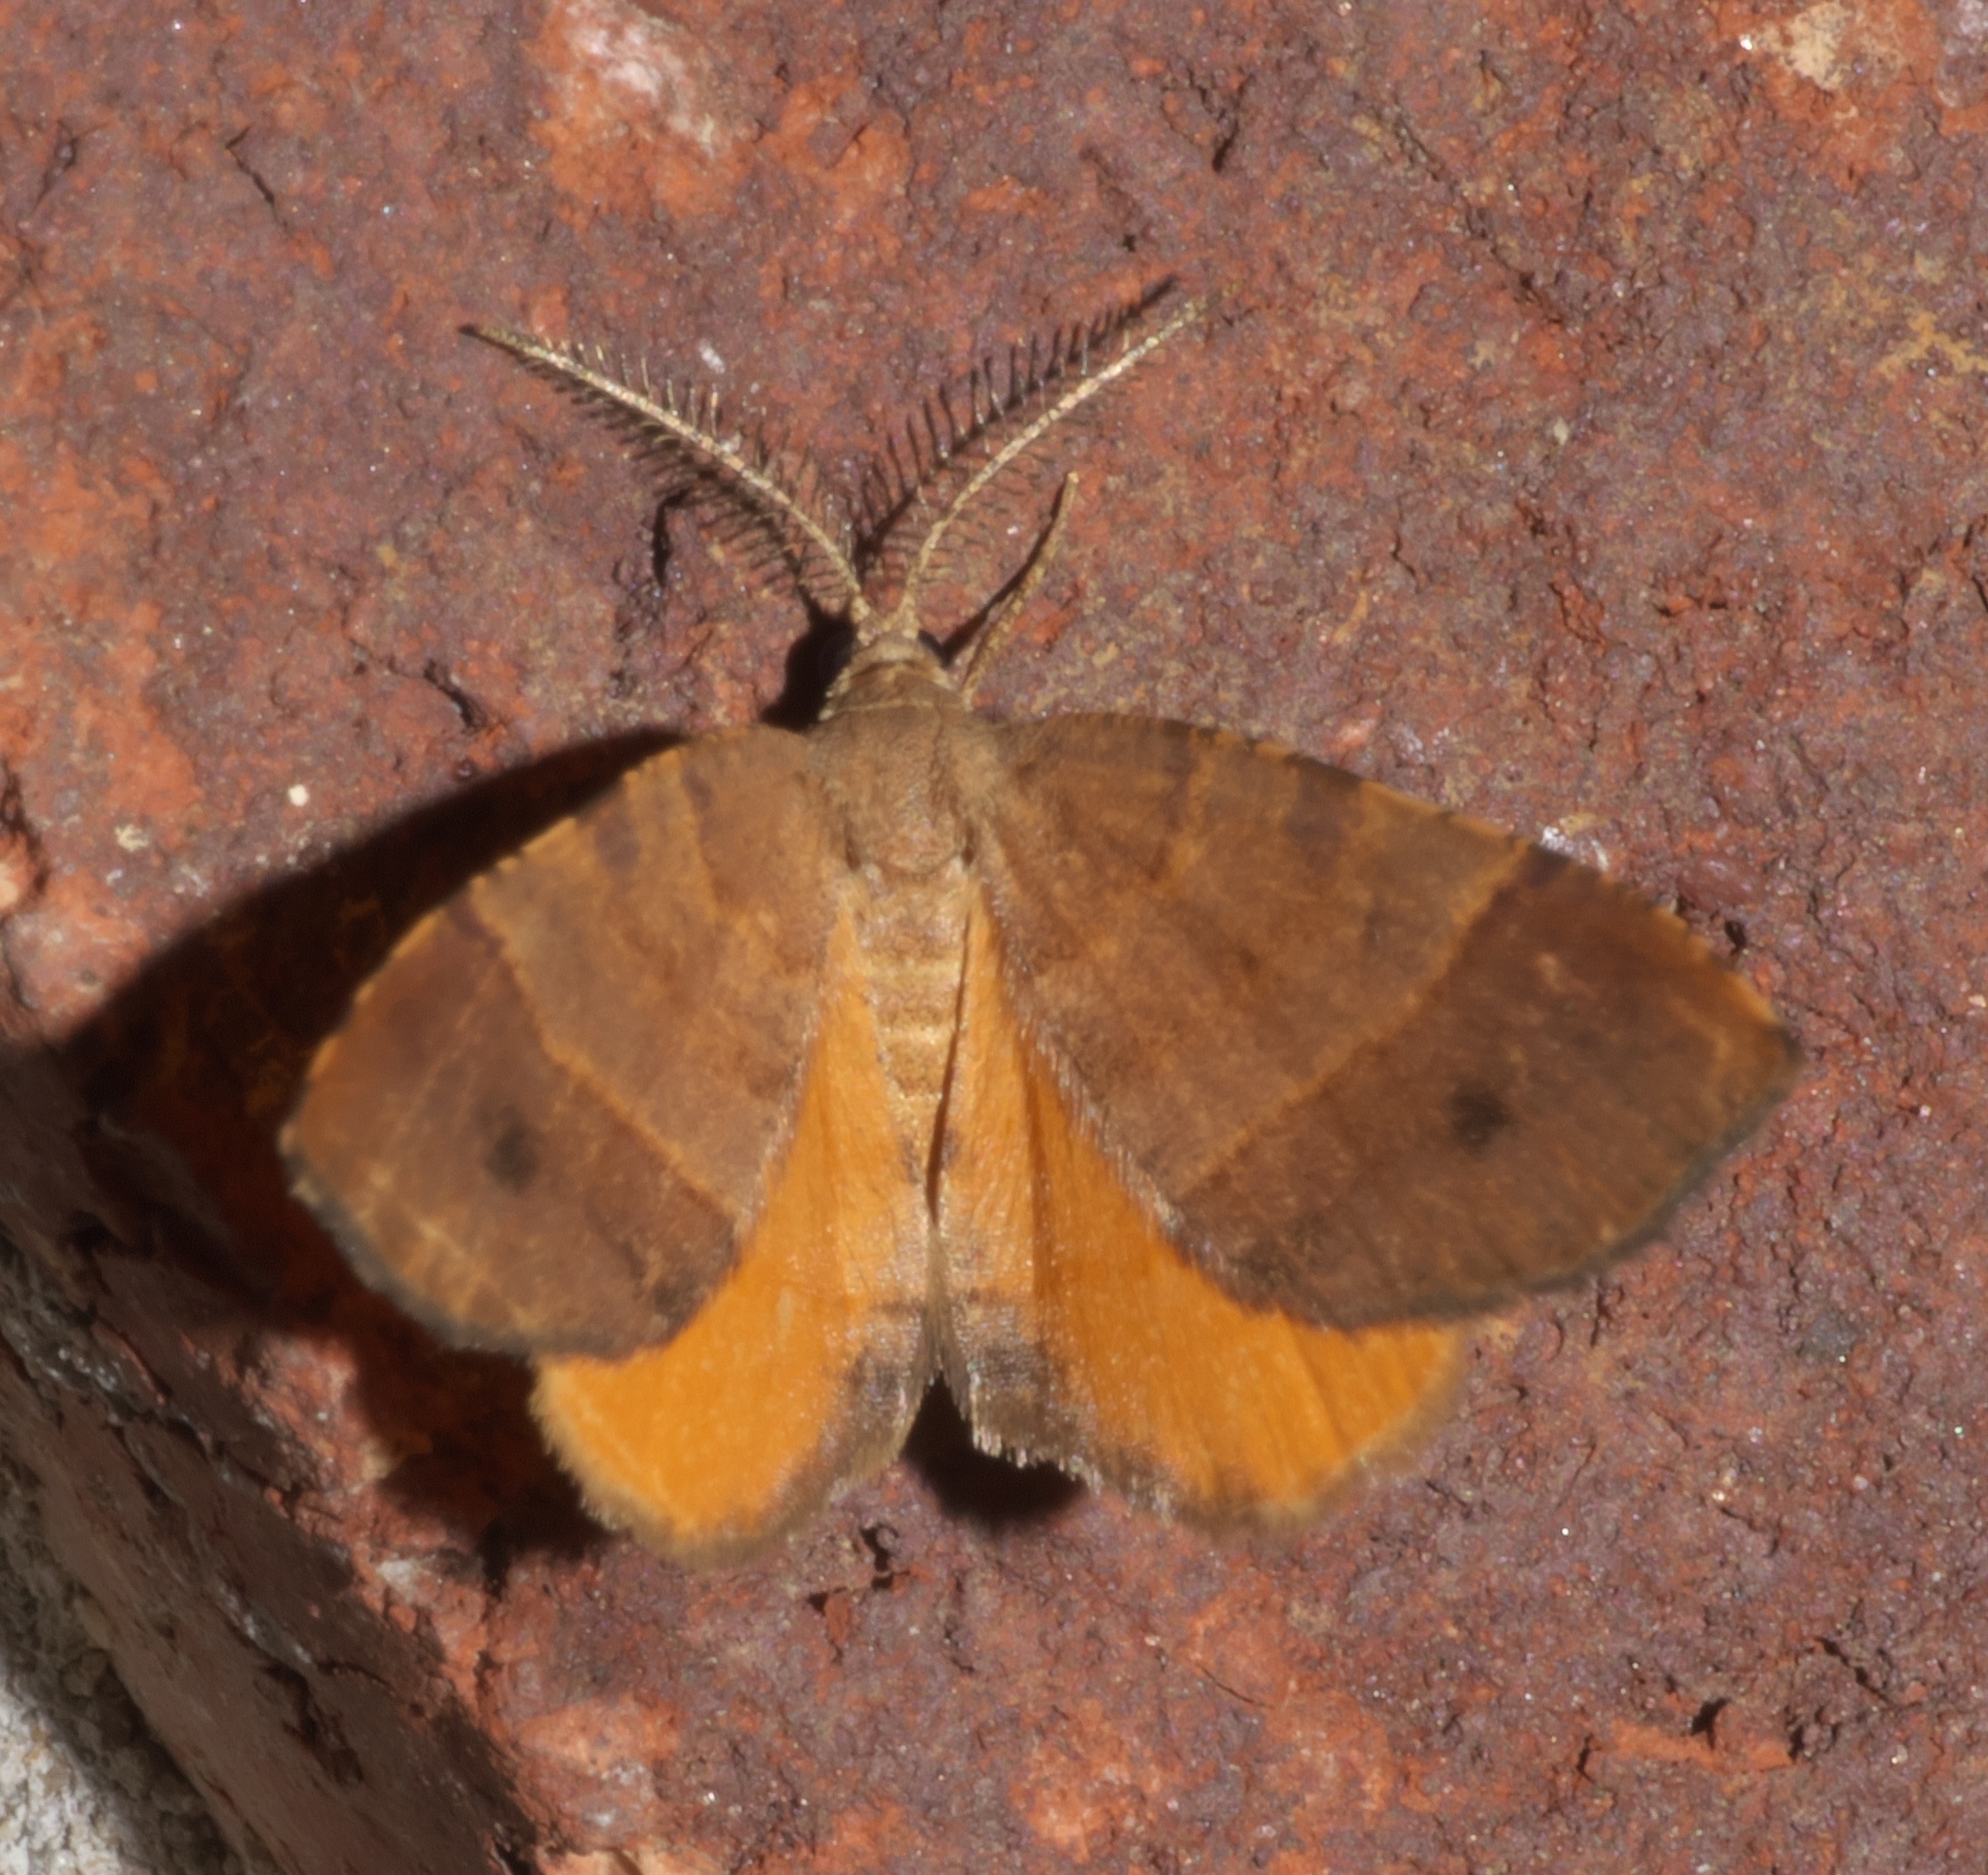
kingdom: Animalia
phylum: Arthropoda
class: Insecta
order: Lepidoptera
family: Geometridae
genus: Mellilla
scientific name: Mellilla xanthometata
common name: Orange wing moth
